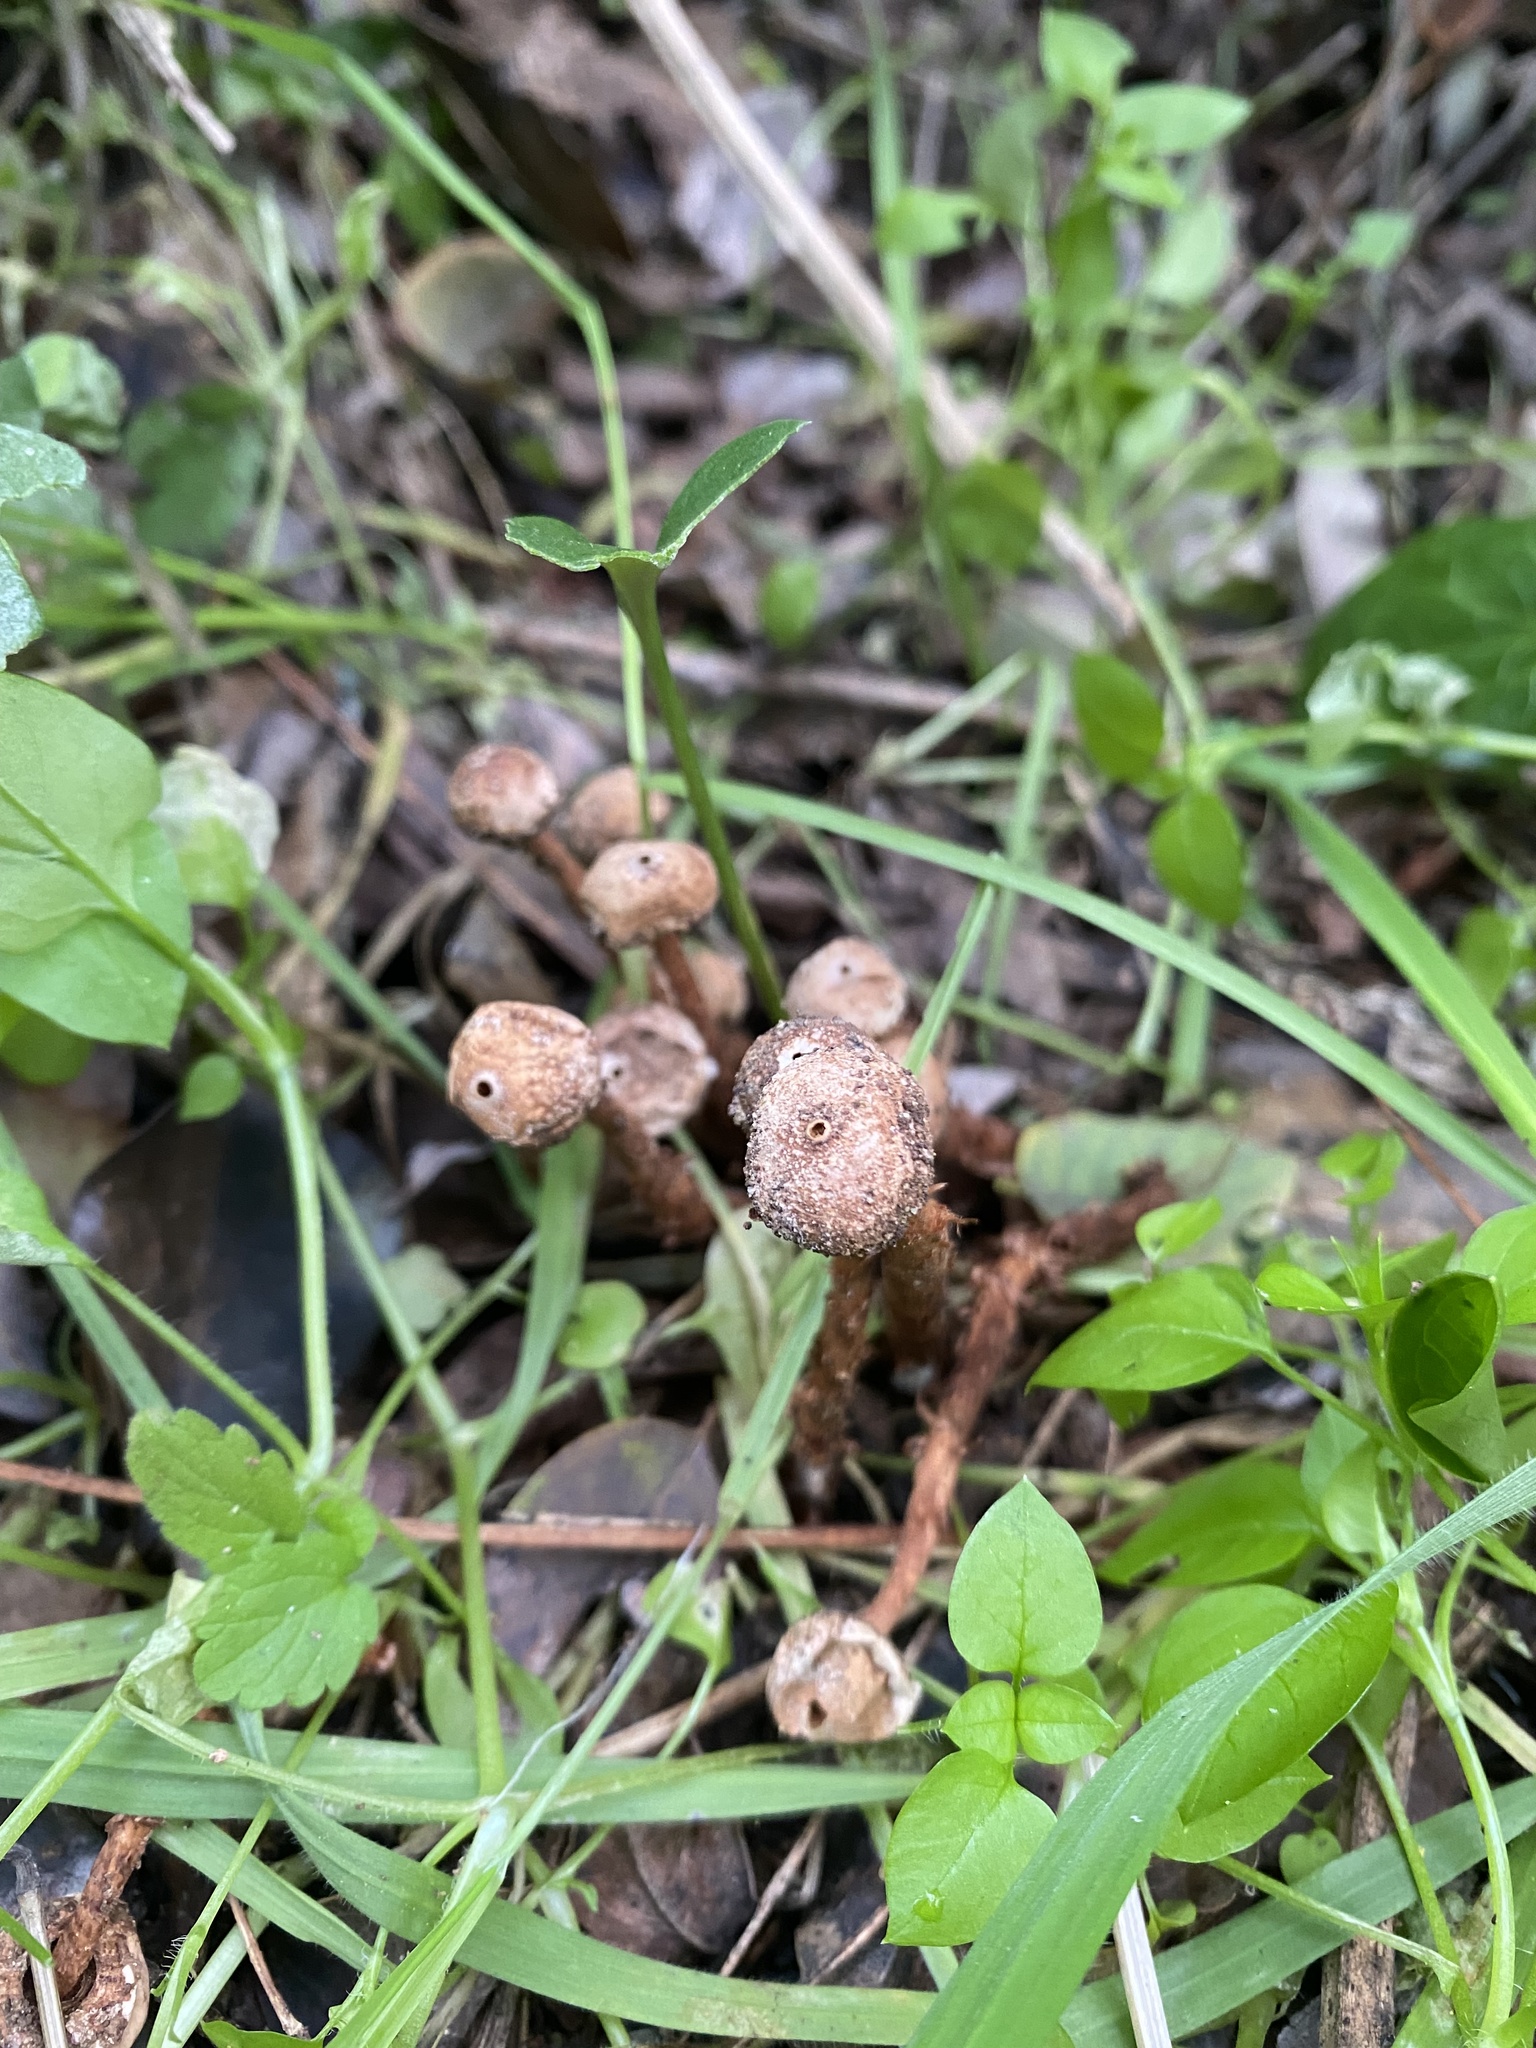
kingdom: Fungi
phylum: Basidiomycota
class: Agaricomycetes
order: Agaricales
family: Agaricaceae
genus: Tulostoma
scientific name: Tulostoma squamosum
